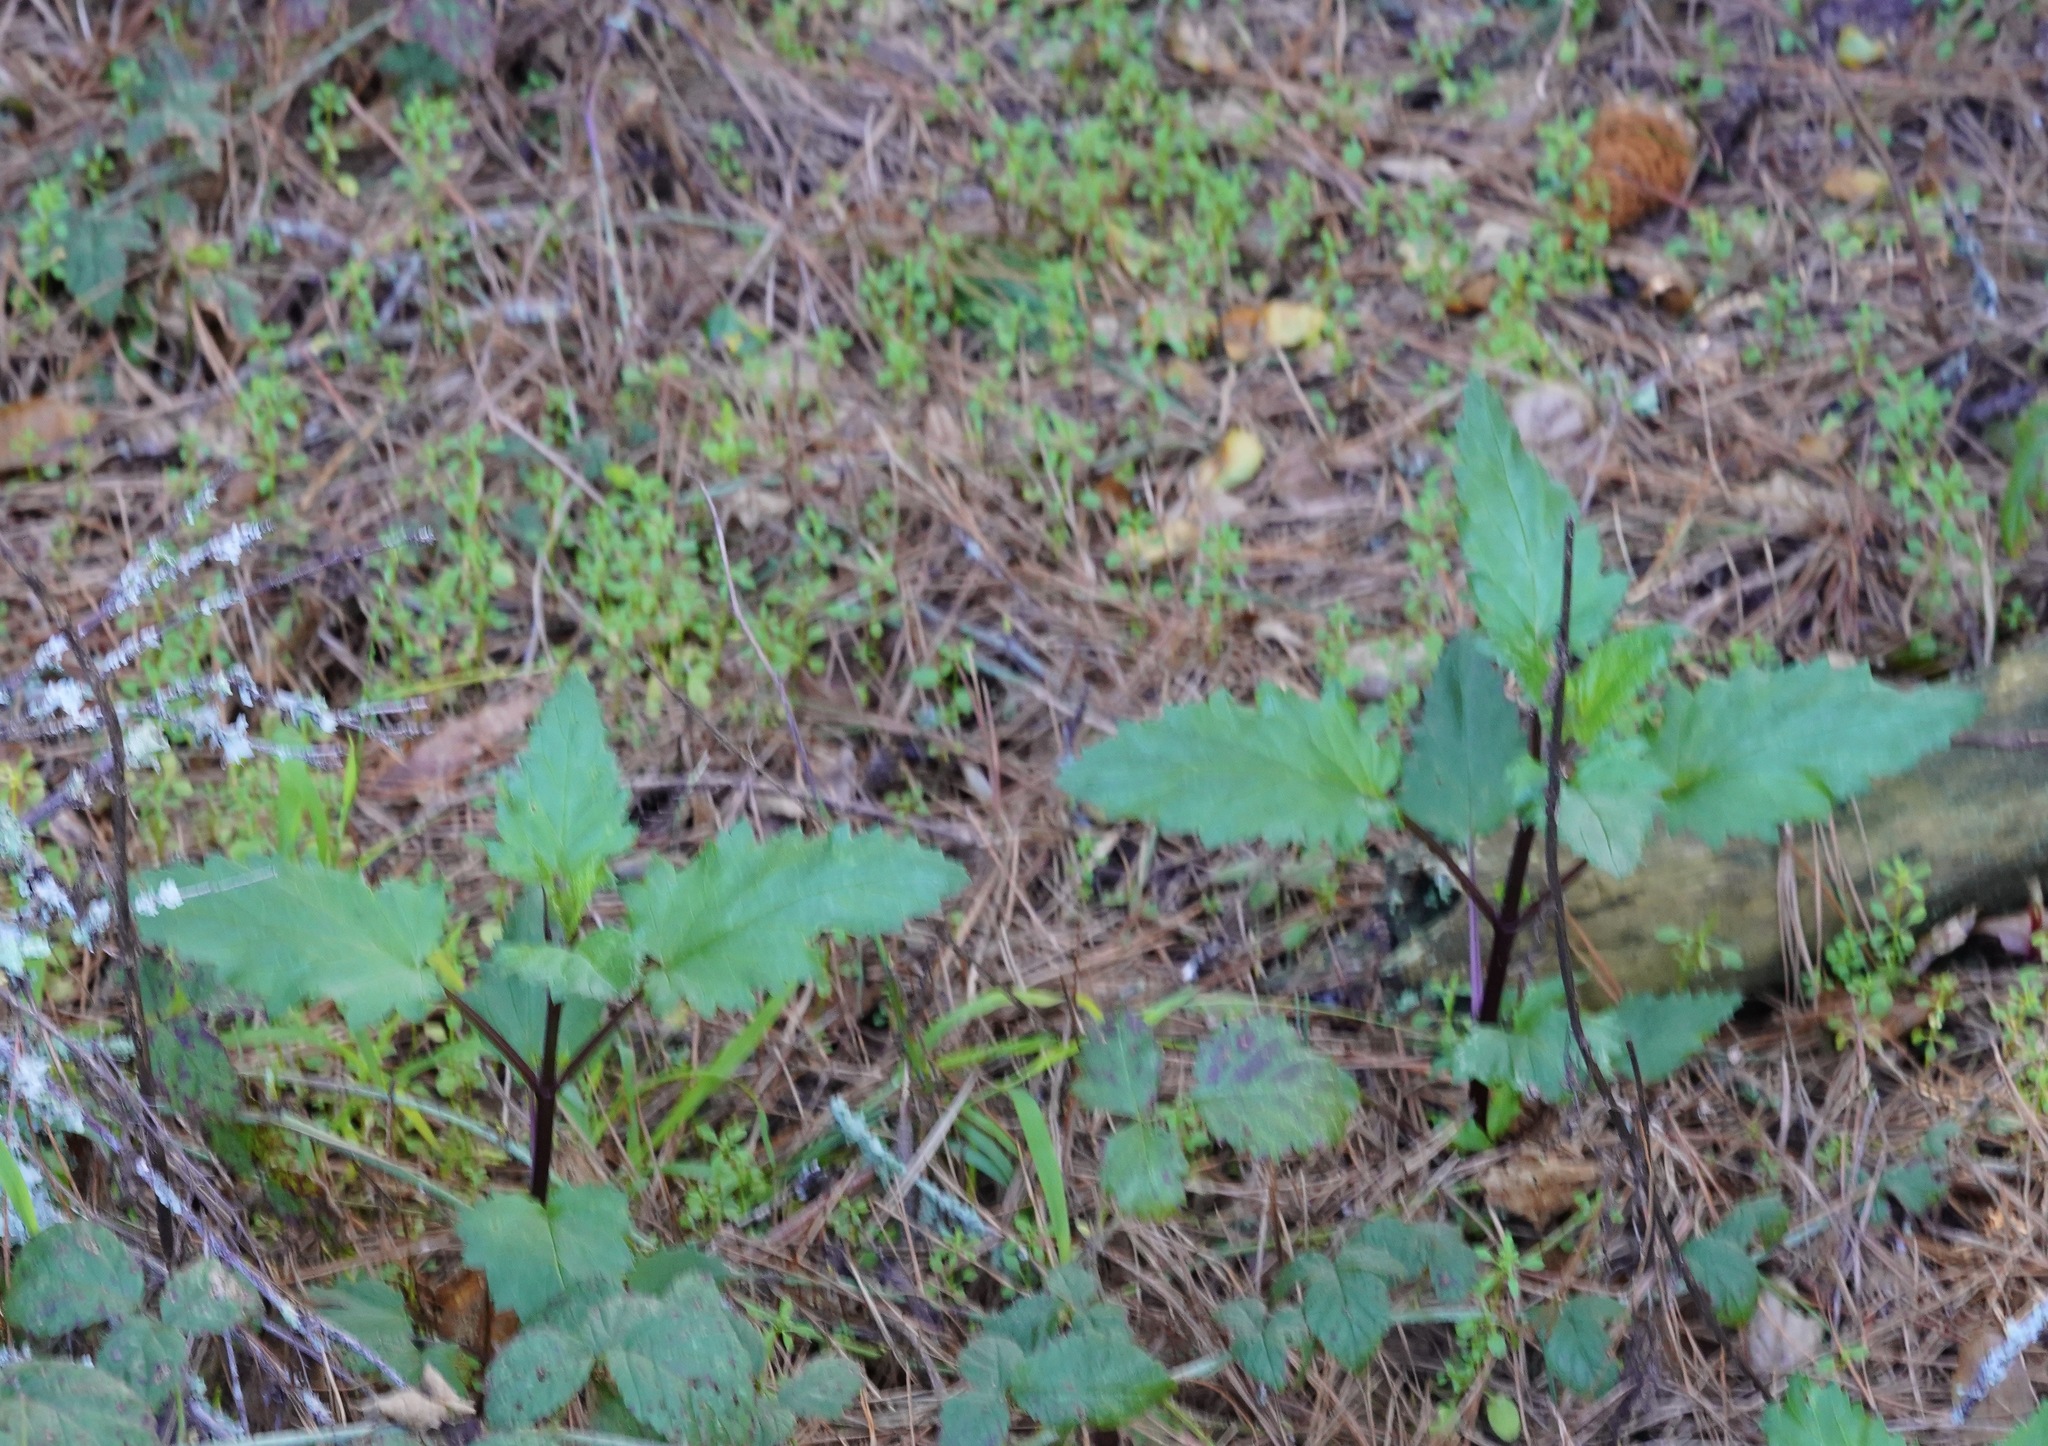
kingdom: Plantae
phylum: Tracheophyta
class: Magnoliopsida
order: Lamiales
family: Scrophulariaceae
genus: Scrophularia
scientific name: Scrophularia californica
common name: California figwort
